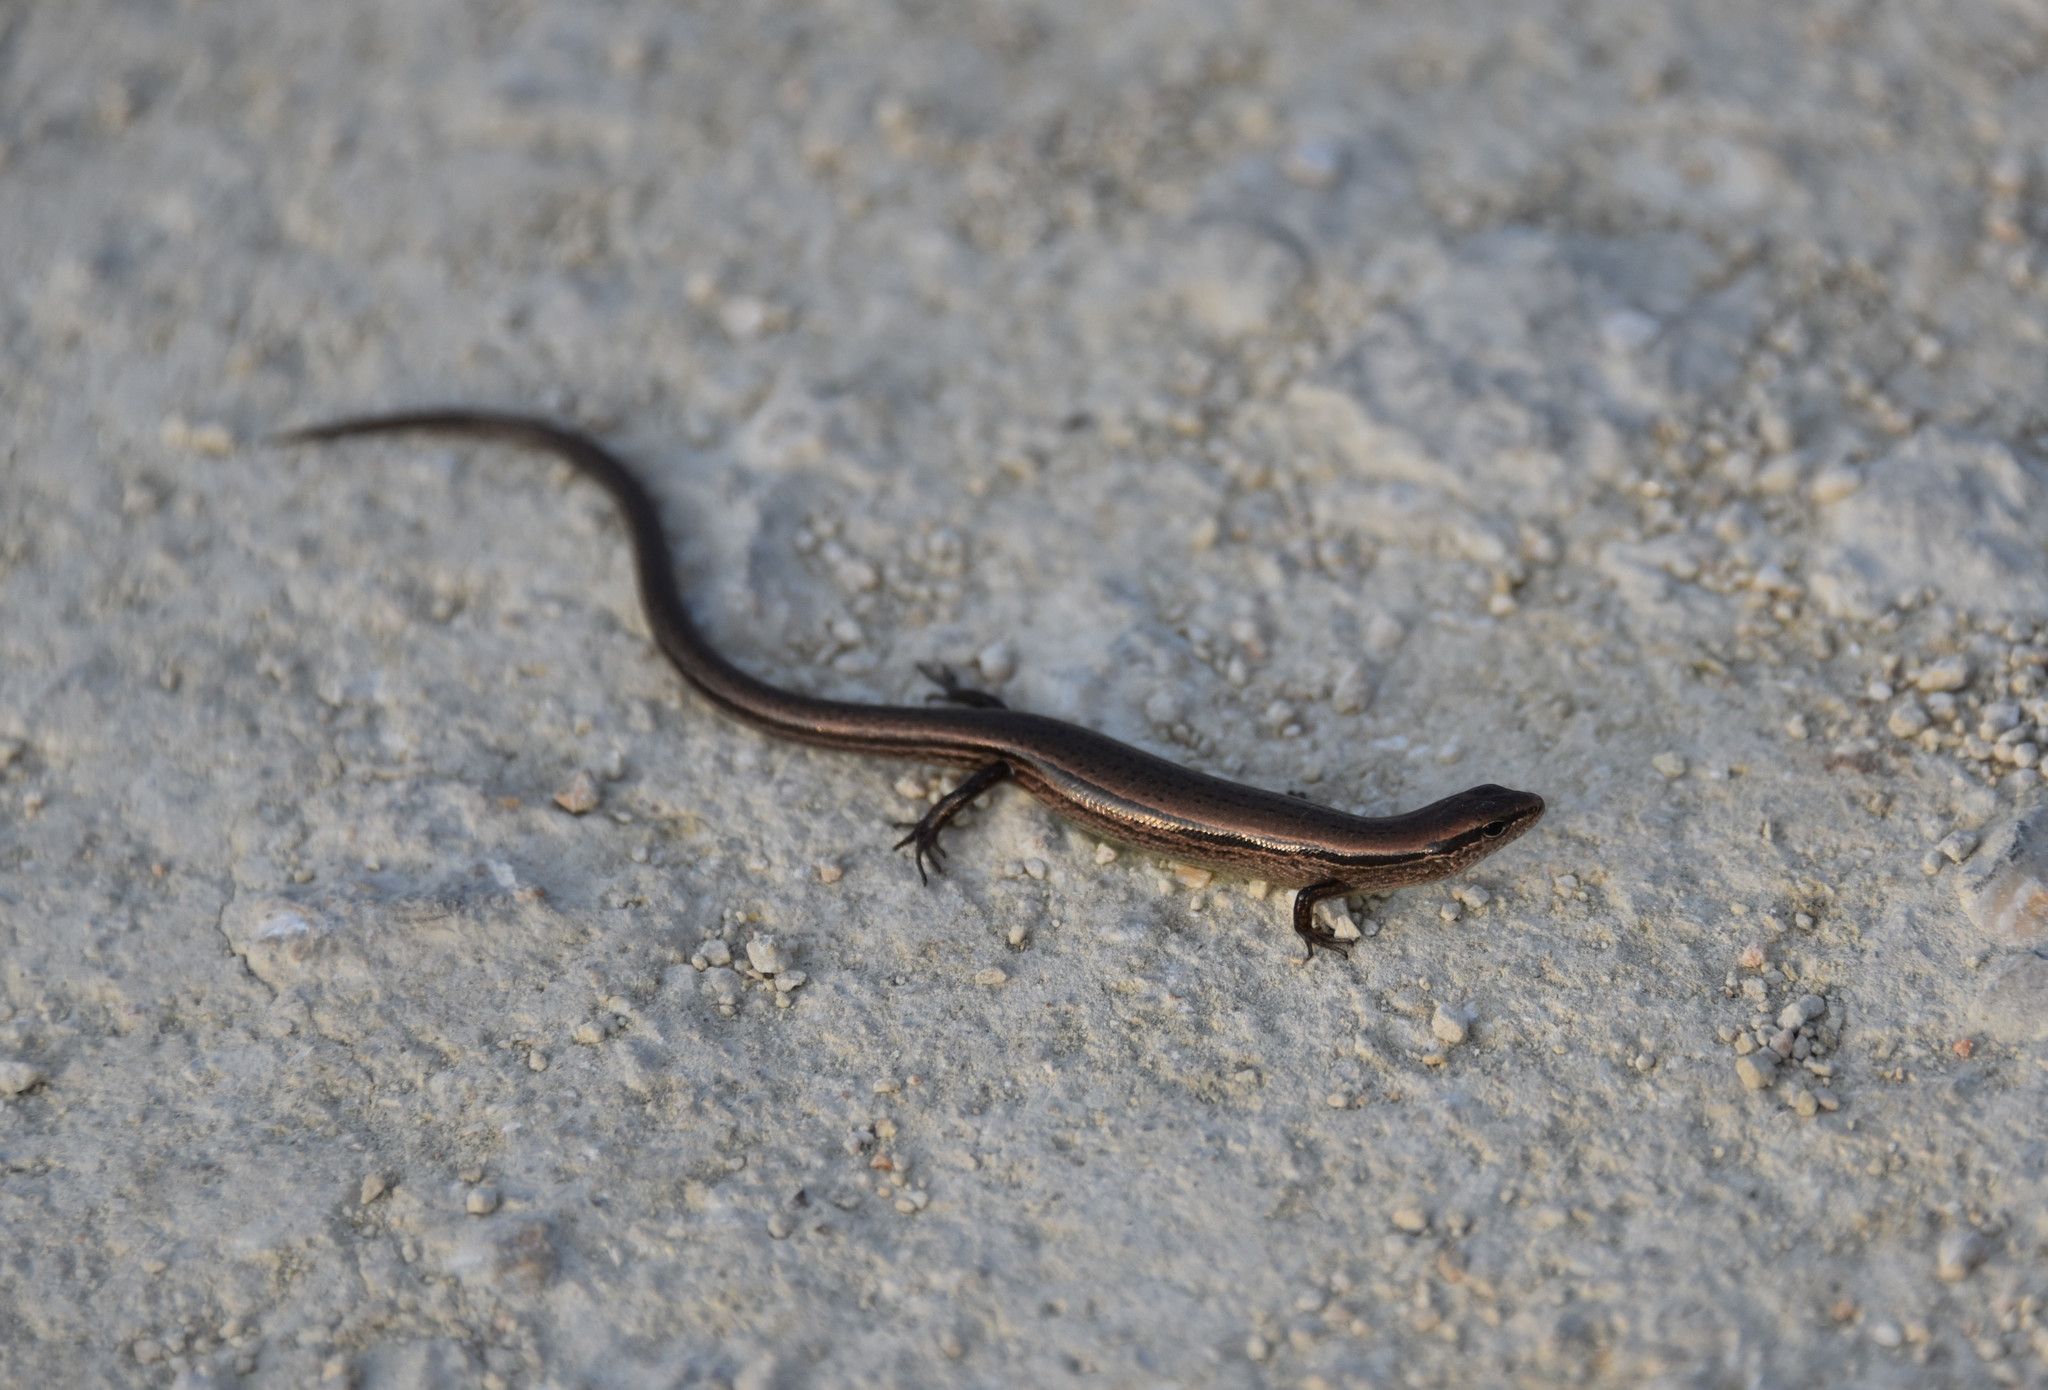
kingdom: Animalia
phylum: Chordata
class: Squamata
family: Scincidae
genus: Scincella
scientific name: Scincella lateralis
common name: Ground skink
